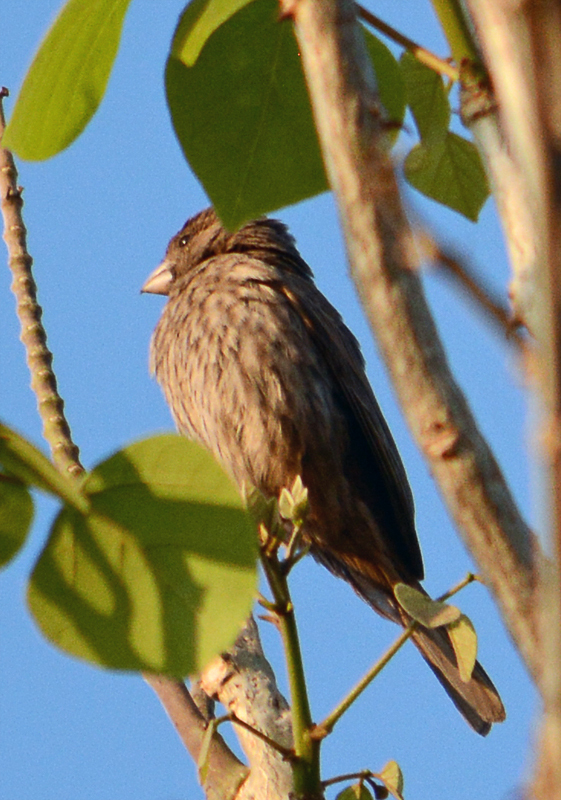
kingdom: Animalia
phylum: Chordata
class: Aves
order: Passeriformes
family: Fringillidae
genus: Haemorhous
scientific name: Haemorhous mexicanus
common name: House finch
